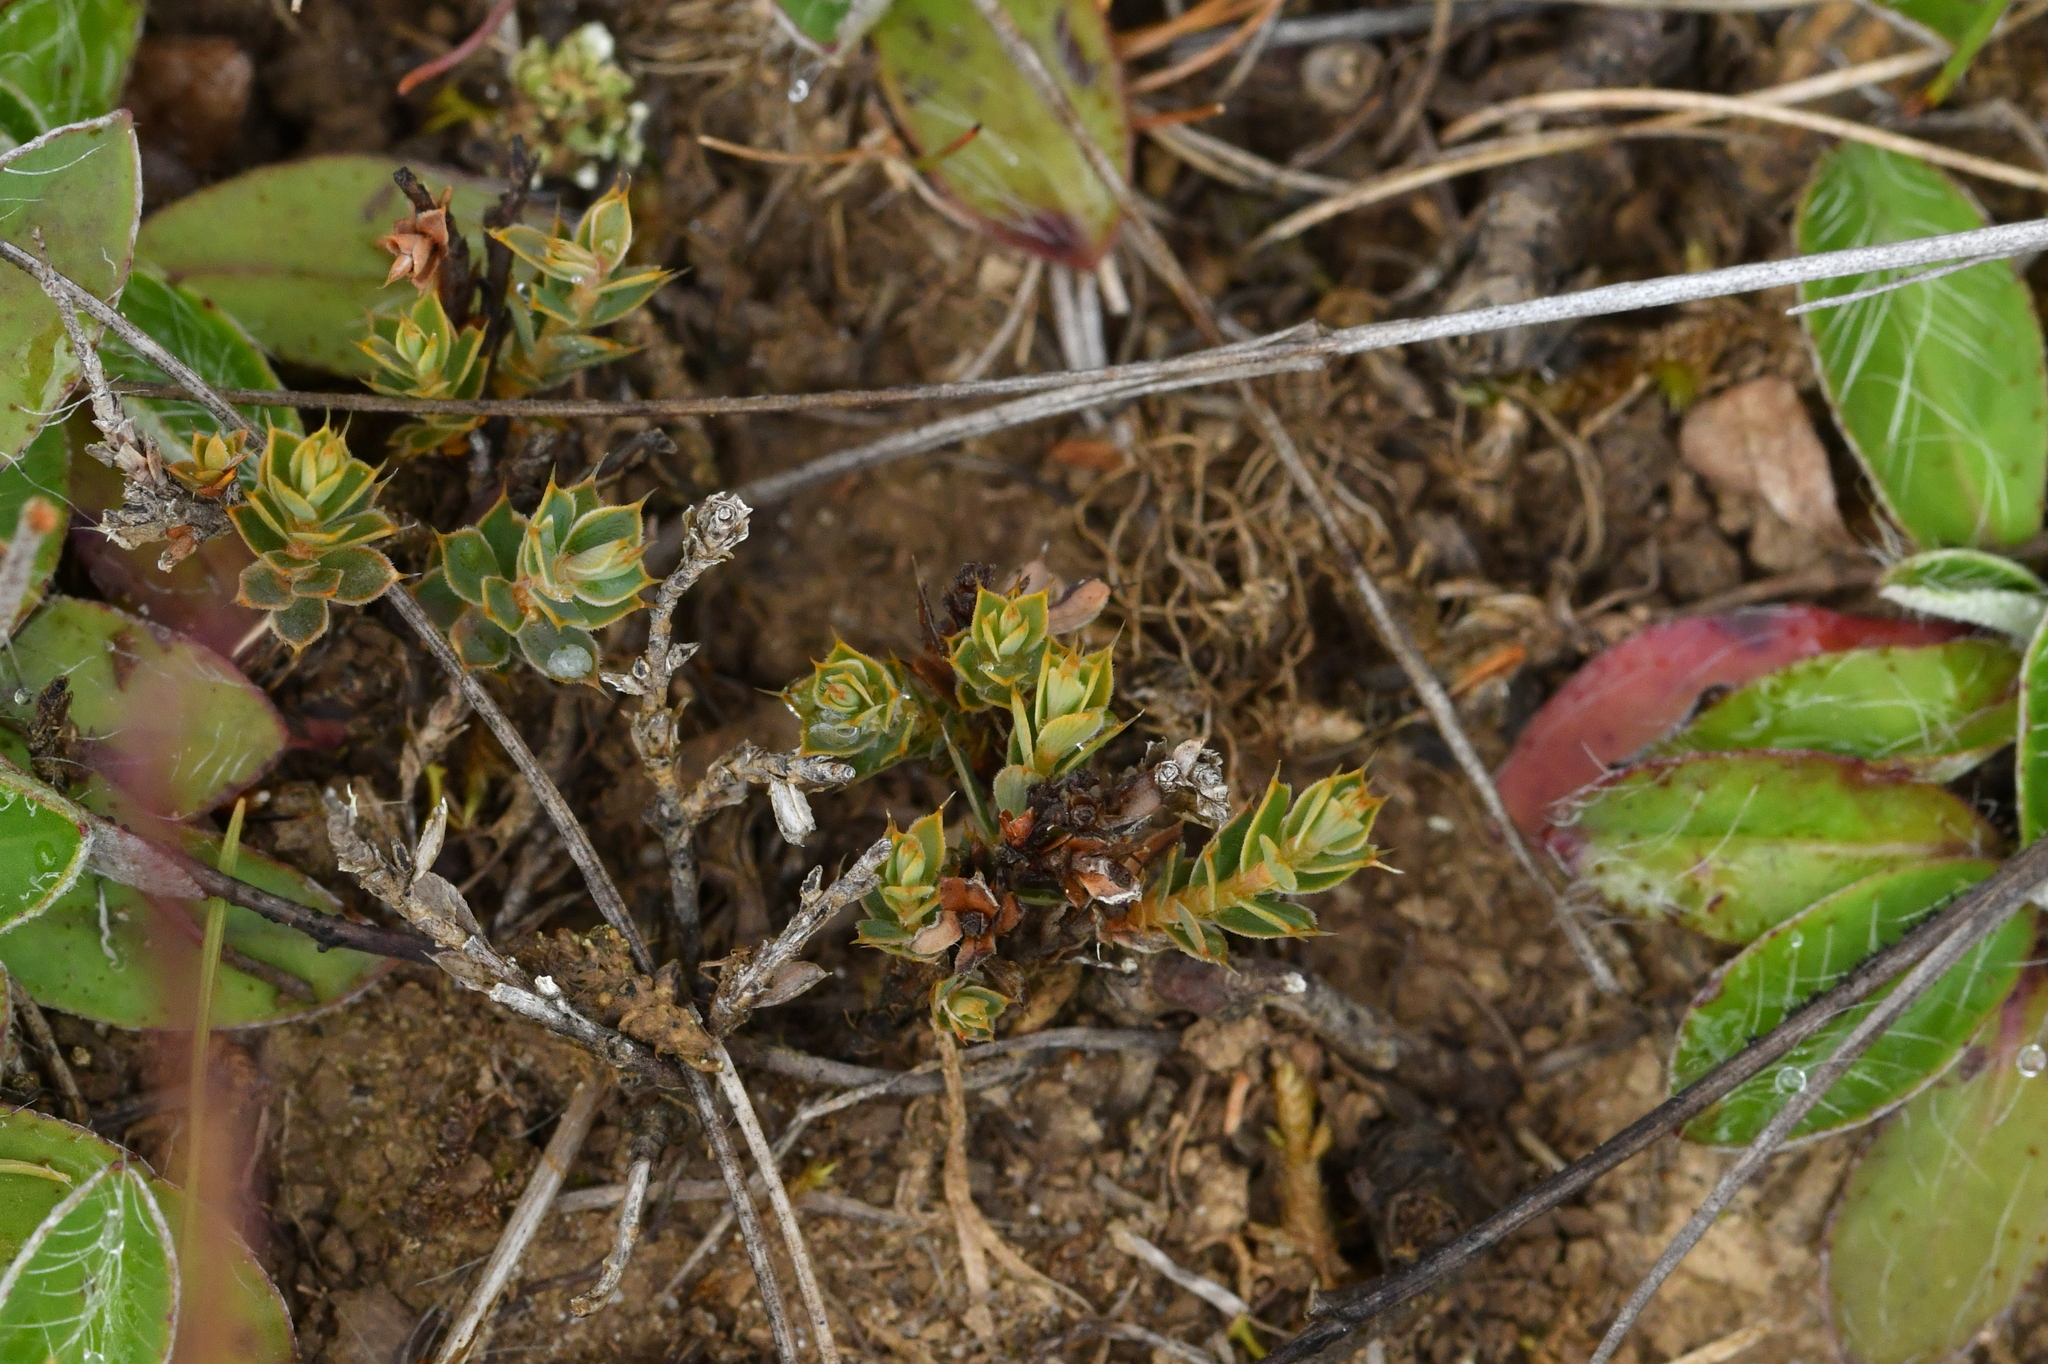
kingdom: Plantae
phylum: Tracheophyta
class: Magnoliopsida
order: Ericales
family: Ericaceae
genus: Styphelia
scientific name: Styphelia nesophila
